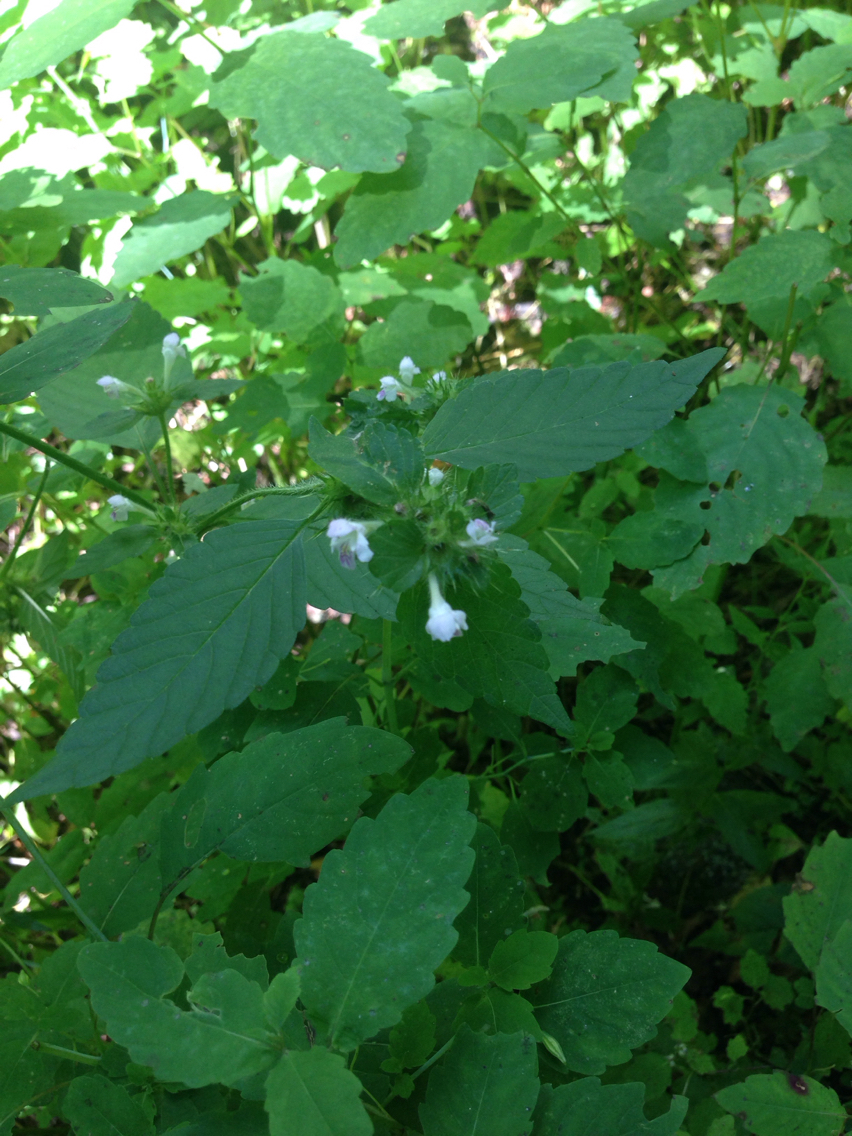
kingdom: Plantae
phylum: Tracheophyta
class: Magnoliopsida
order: Lamiales
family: Lamiaceae
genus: Galeopsis
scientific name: Galeopsis bifida
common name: Bifid hemp-nettle
